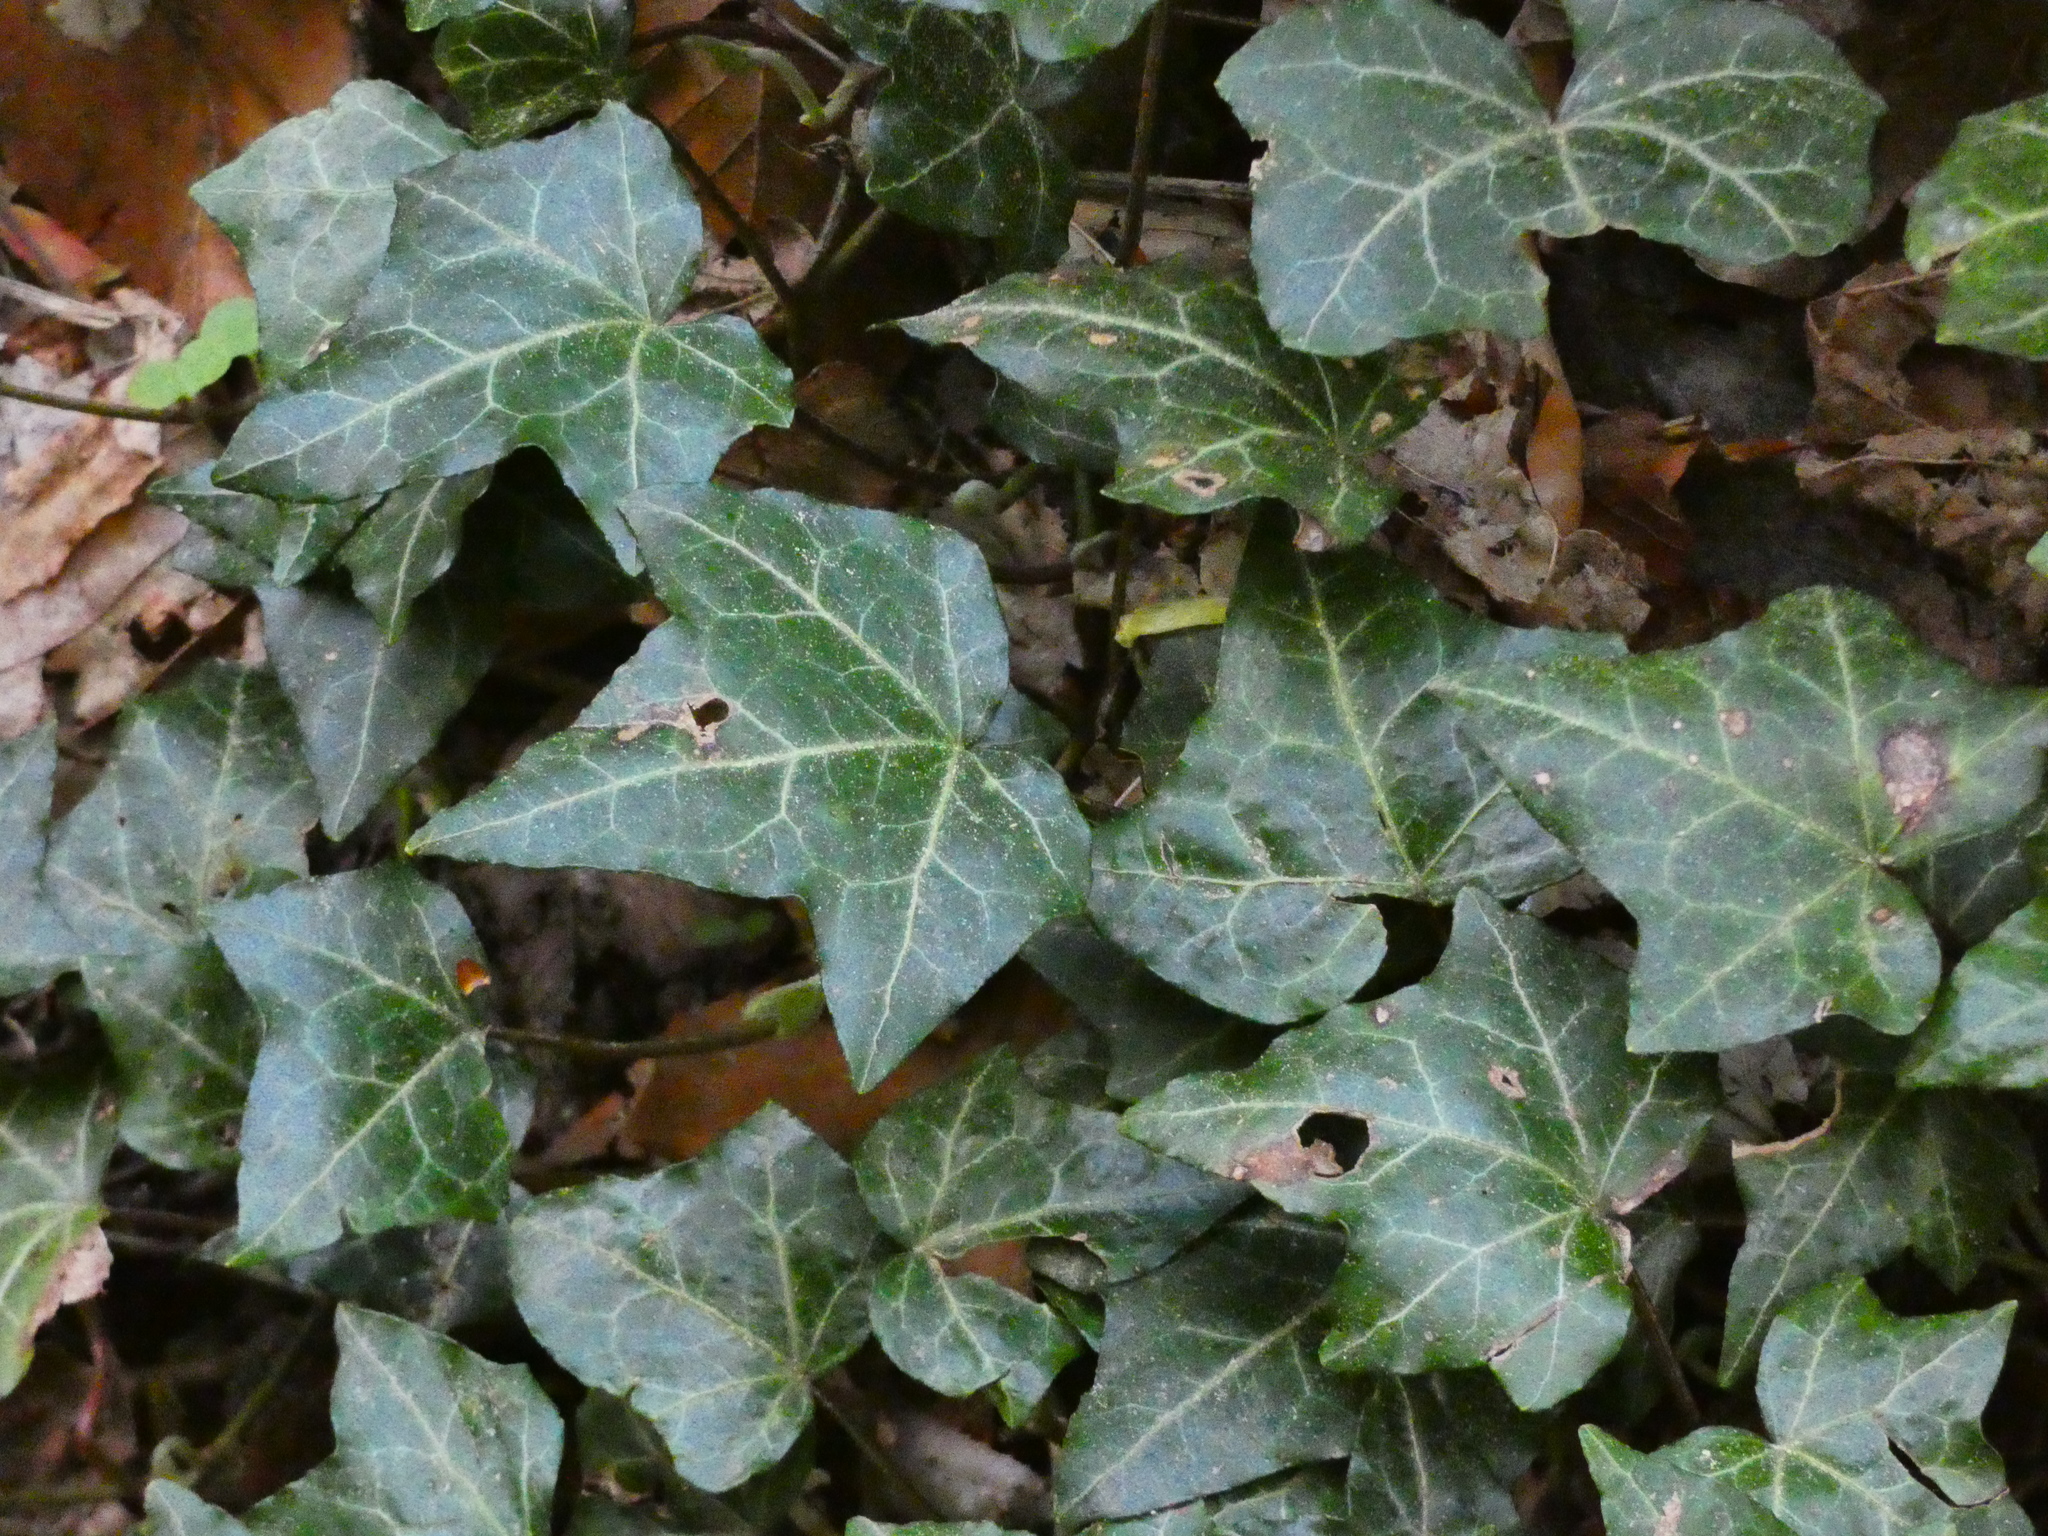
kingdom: Plantae
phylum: Tracheophyta
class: Magnoliopsida
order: Apiales
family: Araliaceae
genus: Hedera
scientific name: Hedera helix
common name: Ivy
